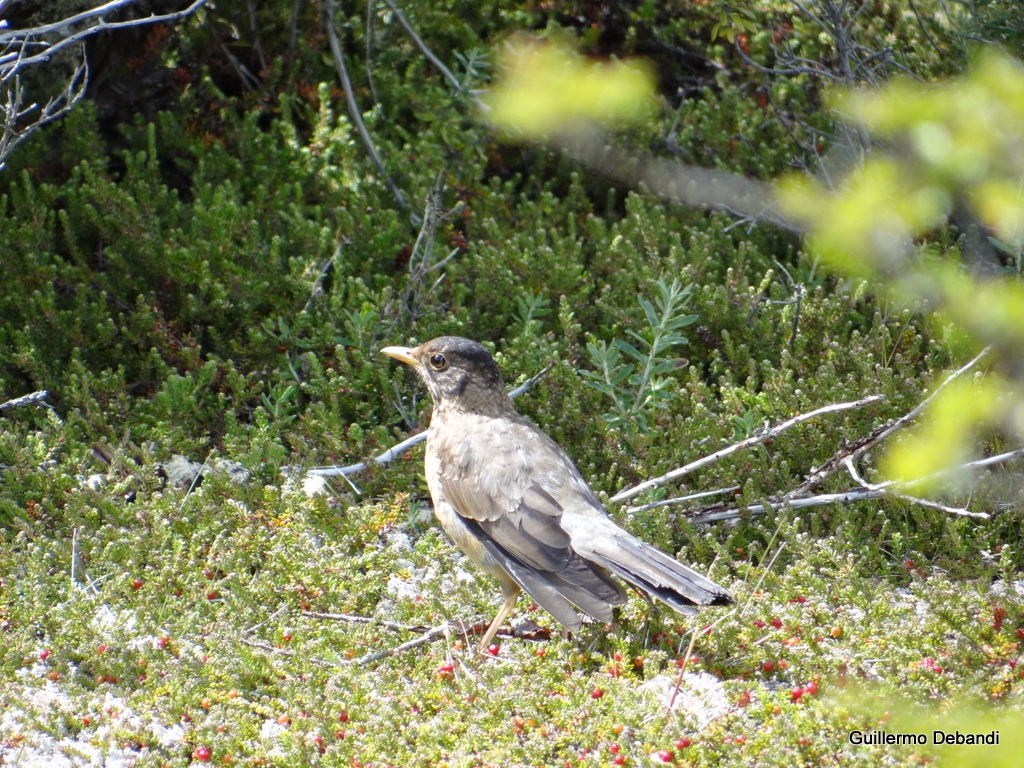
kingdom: Animalia
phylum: Chordata
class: Aves
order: Passeriformes
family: Turdidae
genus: Turdus
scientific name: Turdus falcklandii
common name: Austral thrush
